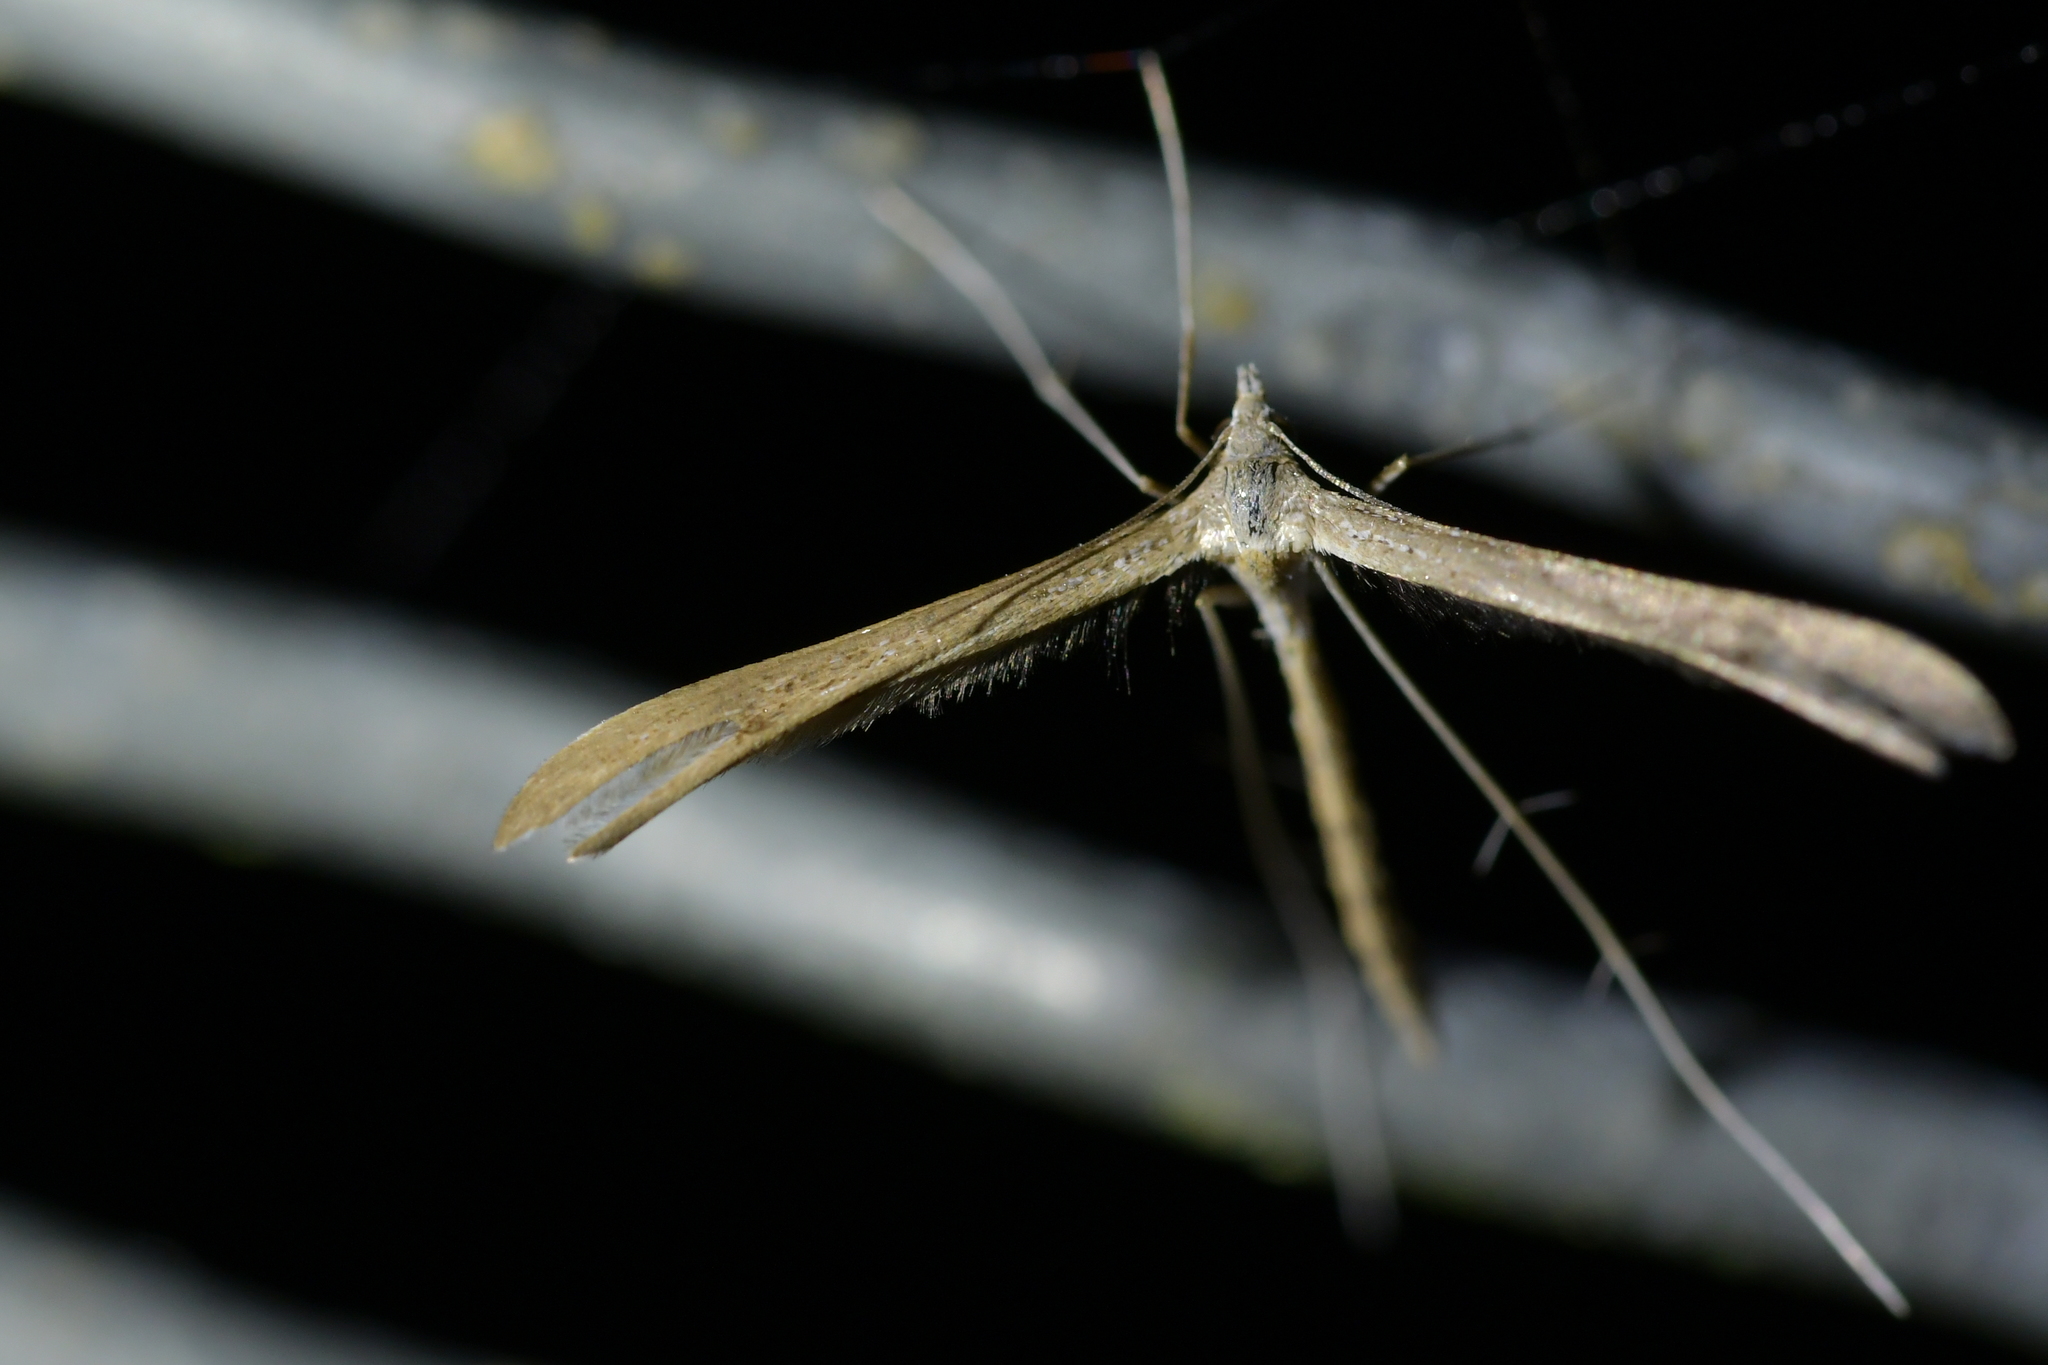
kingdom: Animalia
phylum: Arthropoda
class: Insecta
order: Lepidoptera
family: Pterophoridae
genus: Stenoptilia
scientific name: Stenoptilia zophodactylus
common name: Dowdy plume
